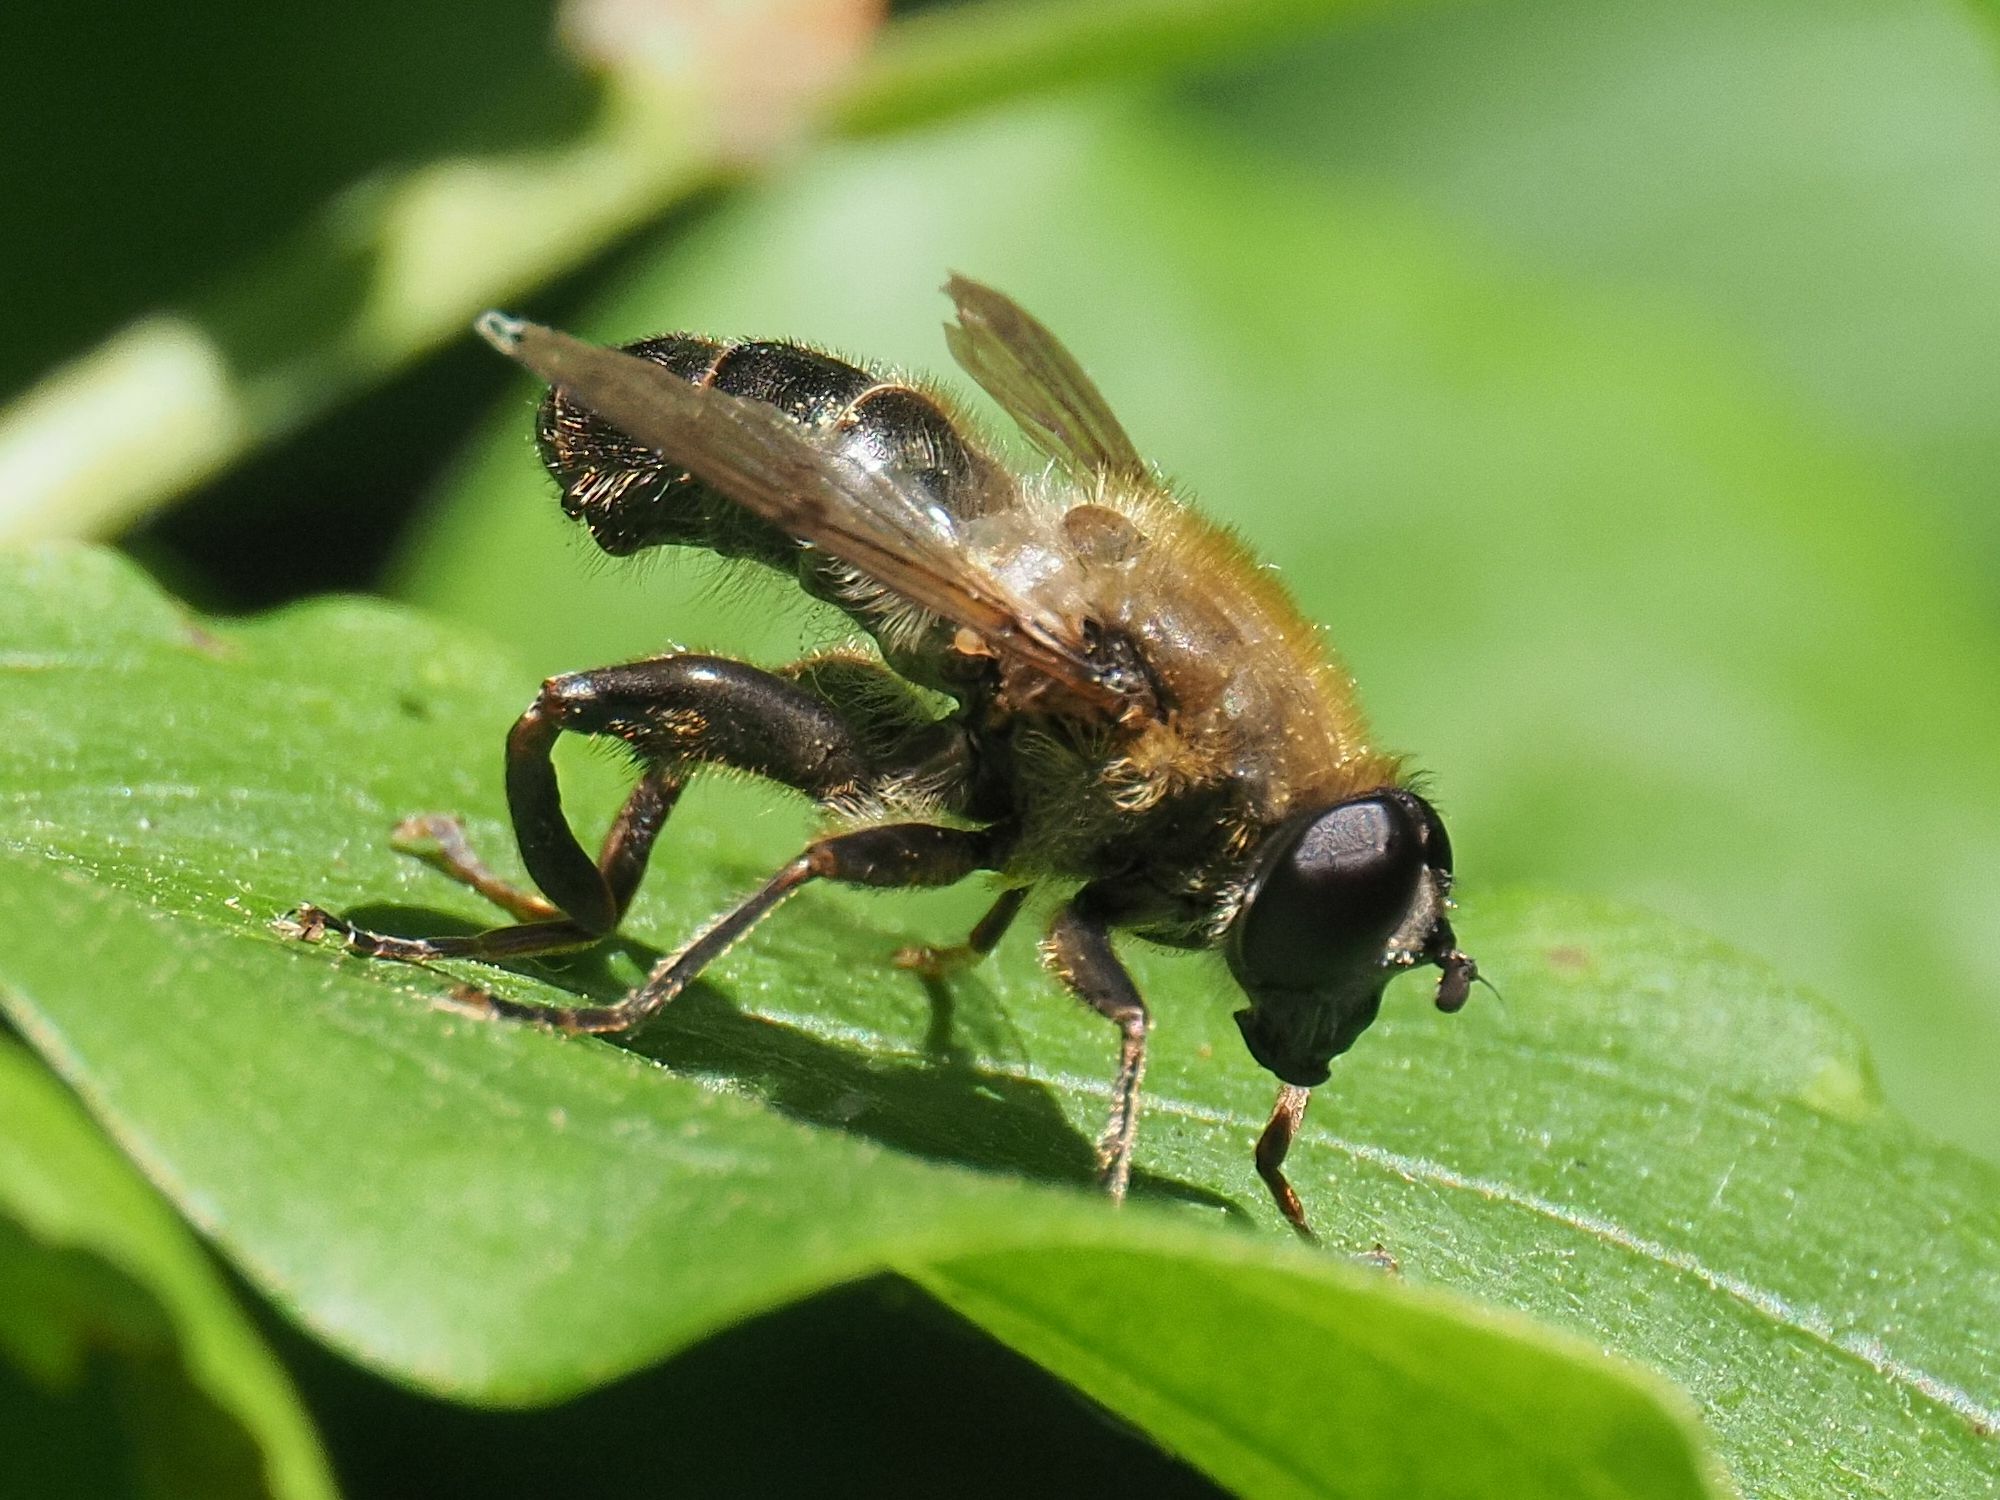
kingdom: Animalia
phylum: Arthropoda
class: Insecta
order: Diptera
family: Syrphidae
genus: Mallota
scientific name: Mallota cimbiciformis
